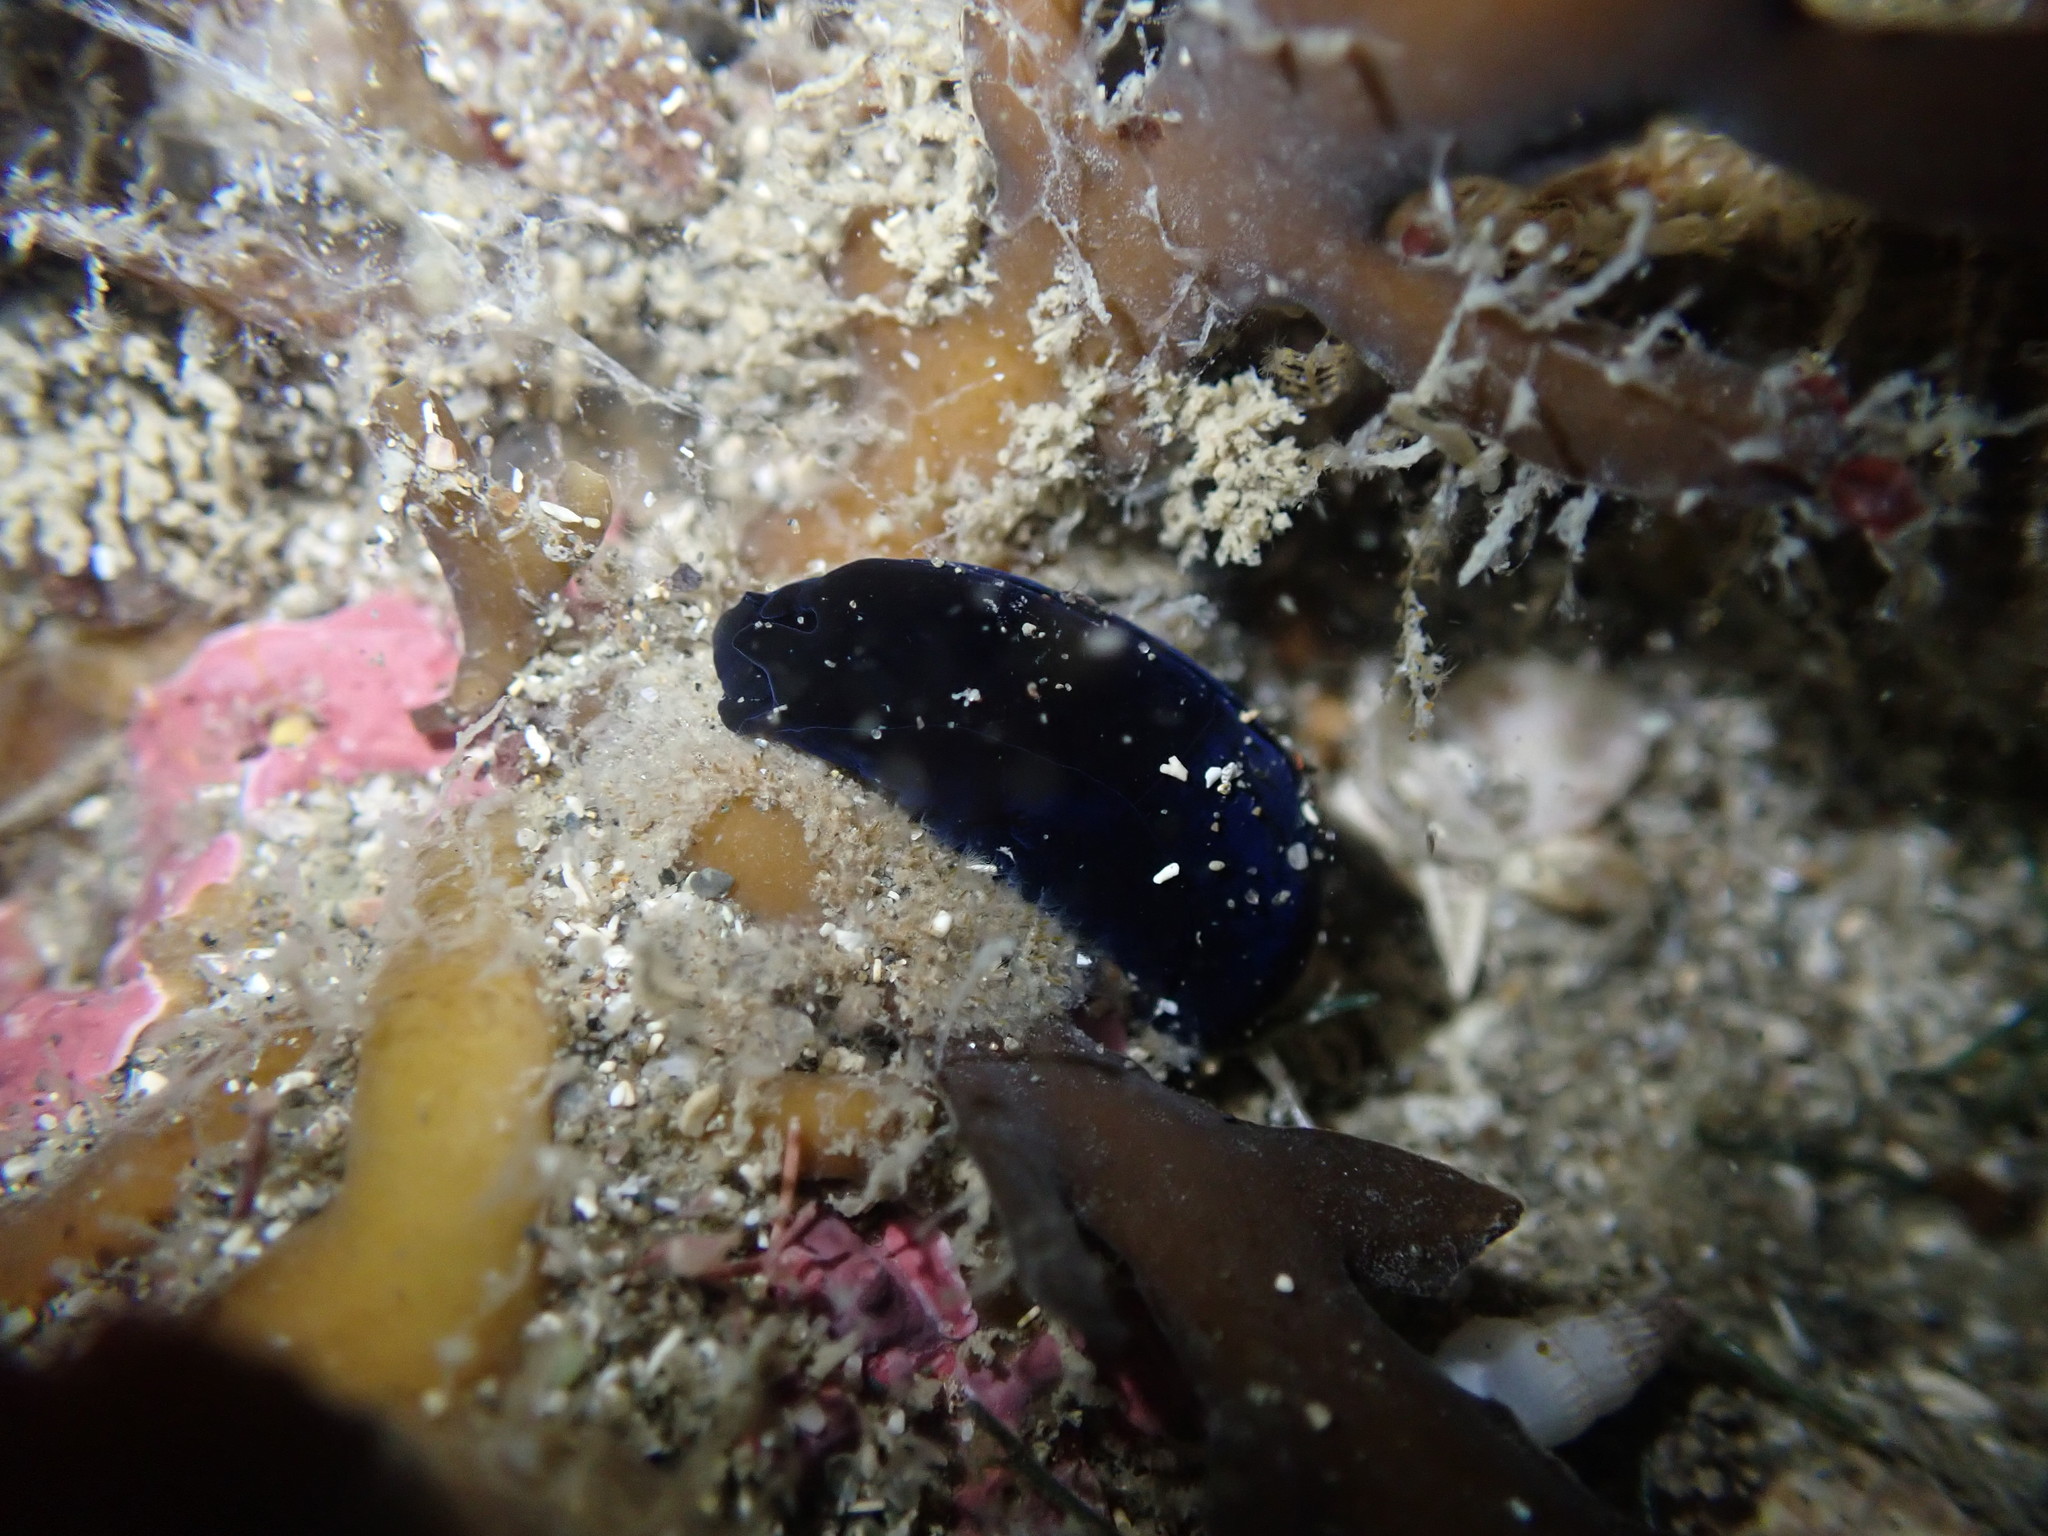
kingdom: Animalia
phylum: Mollusca
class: Gastropoda
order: Cephalaspidea
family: Aglajidae
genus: Melanochlamys
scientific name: Melanochlamys cylindrica
